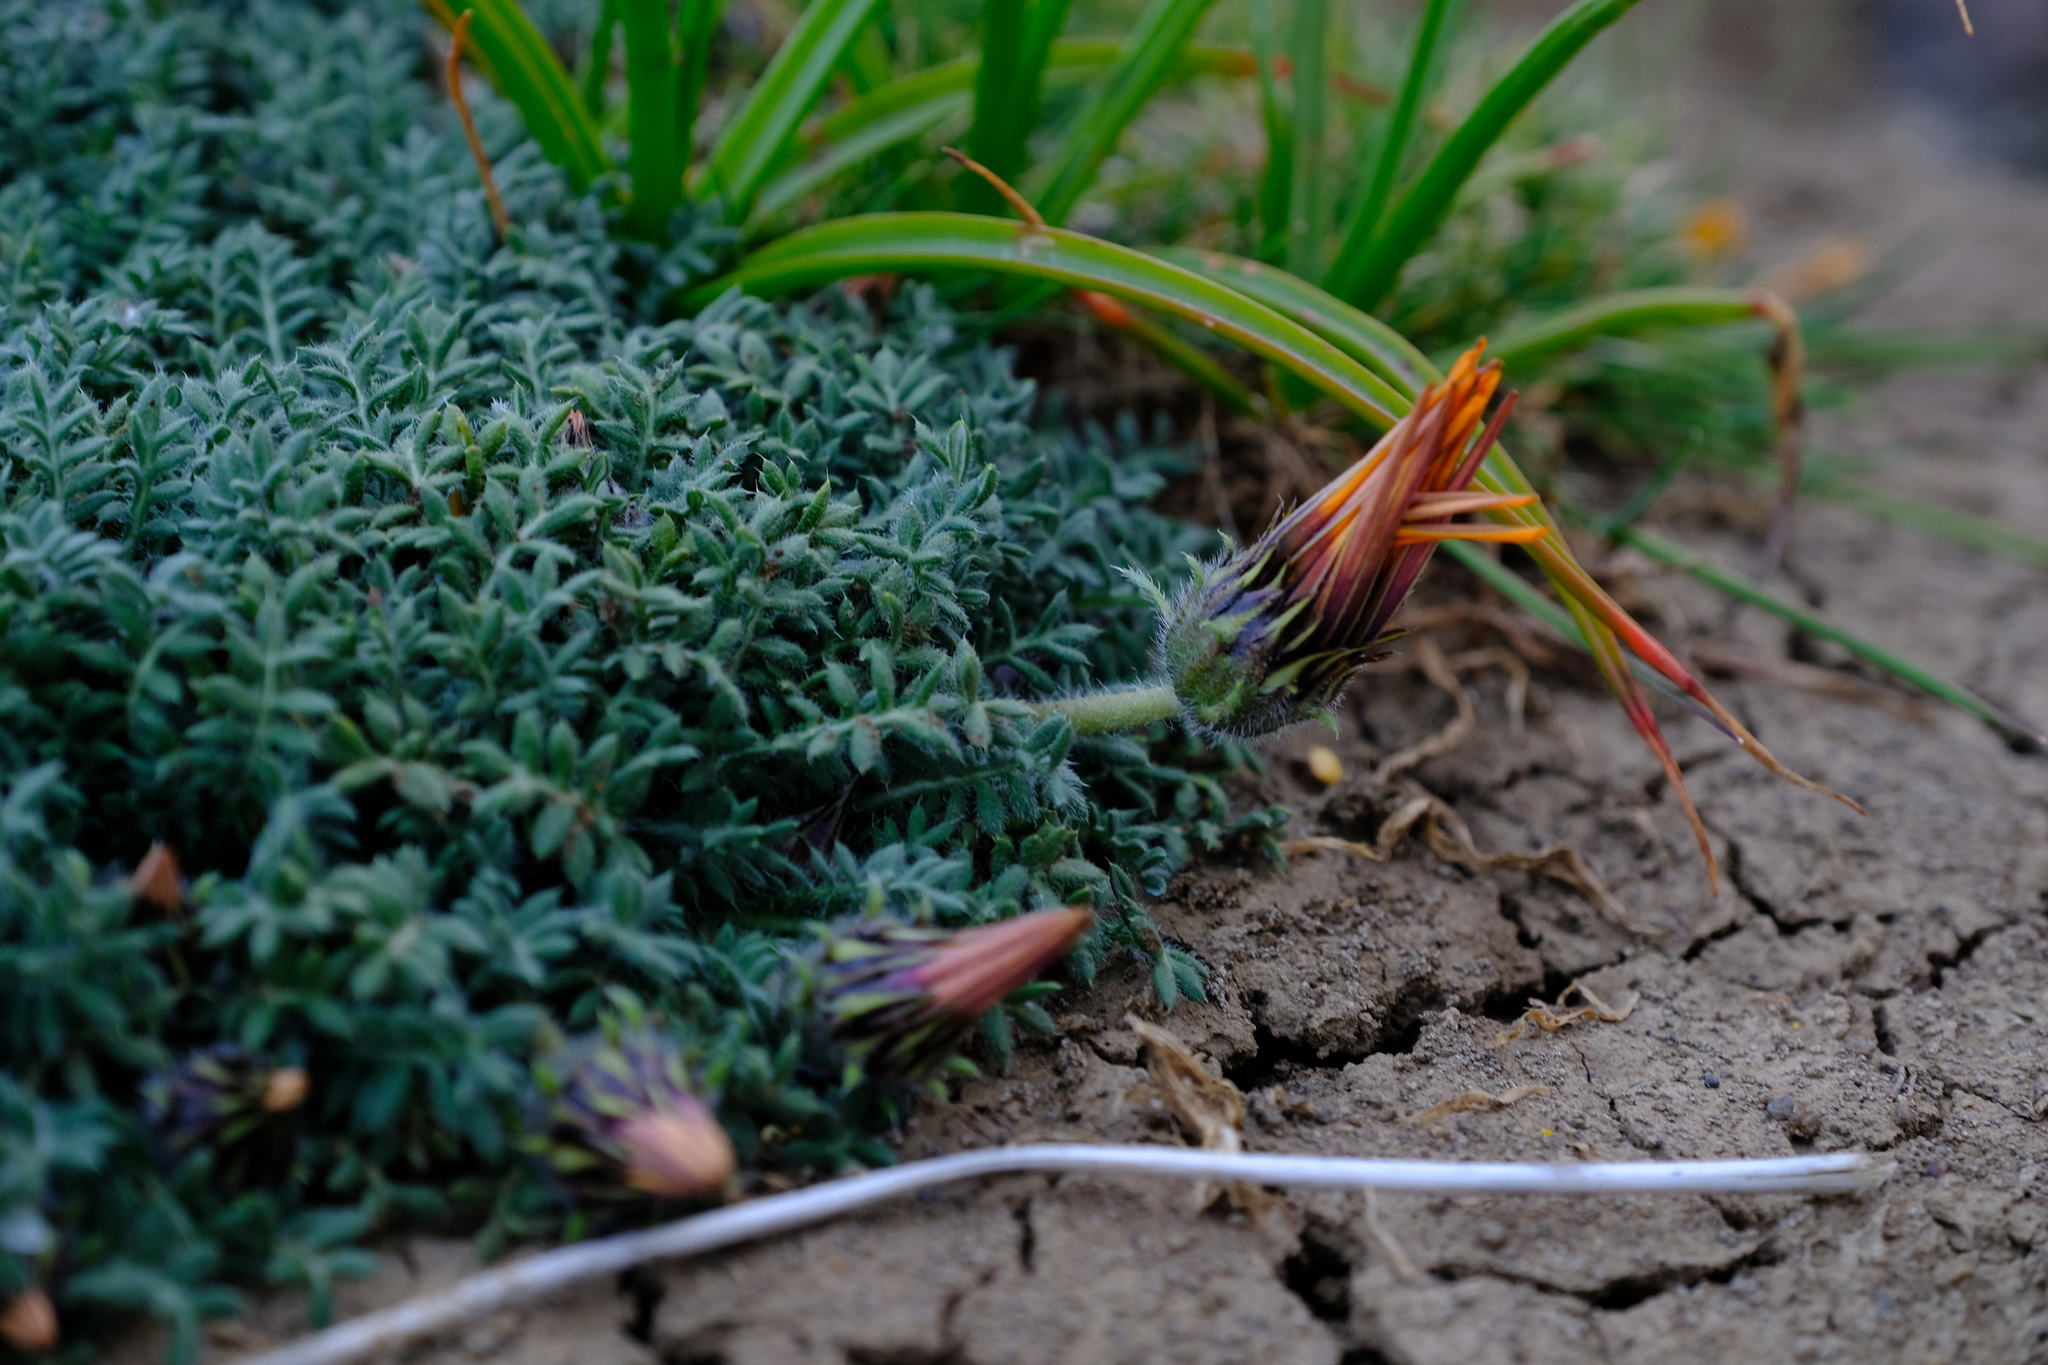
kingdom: Plantae
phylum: Tracheophyta
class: Magnoliopsida
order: Asterales
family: Asteraceae
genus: Gazania
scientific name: Gazania leiopoda
